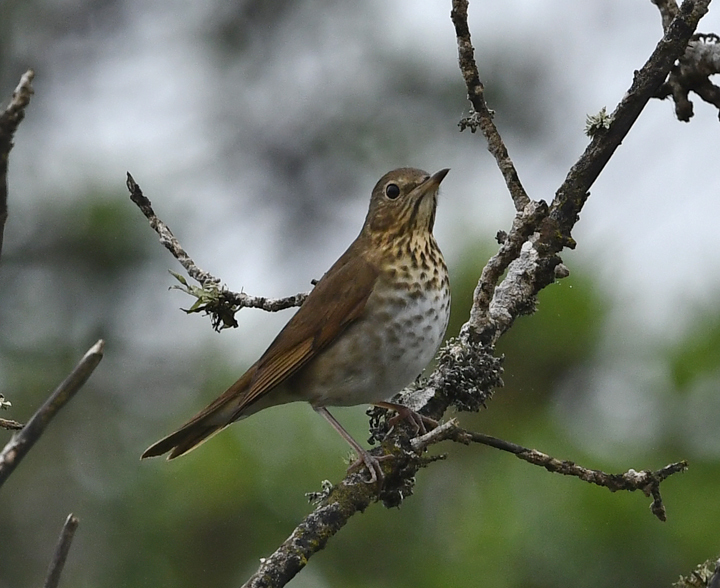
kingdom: Animalia
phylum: Chordata
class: Aves
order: Passeriformes
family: Turdidae
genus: Catharus
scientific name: Catharus ustulatus
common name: Swainson's thrush
